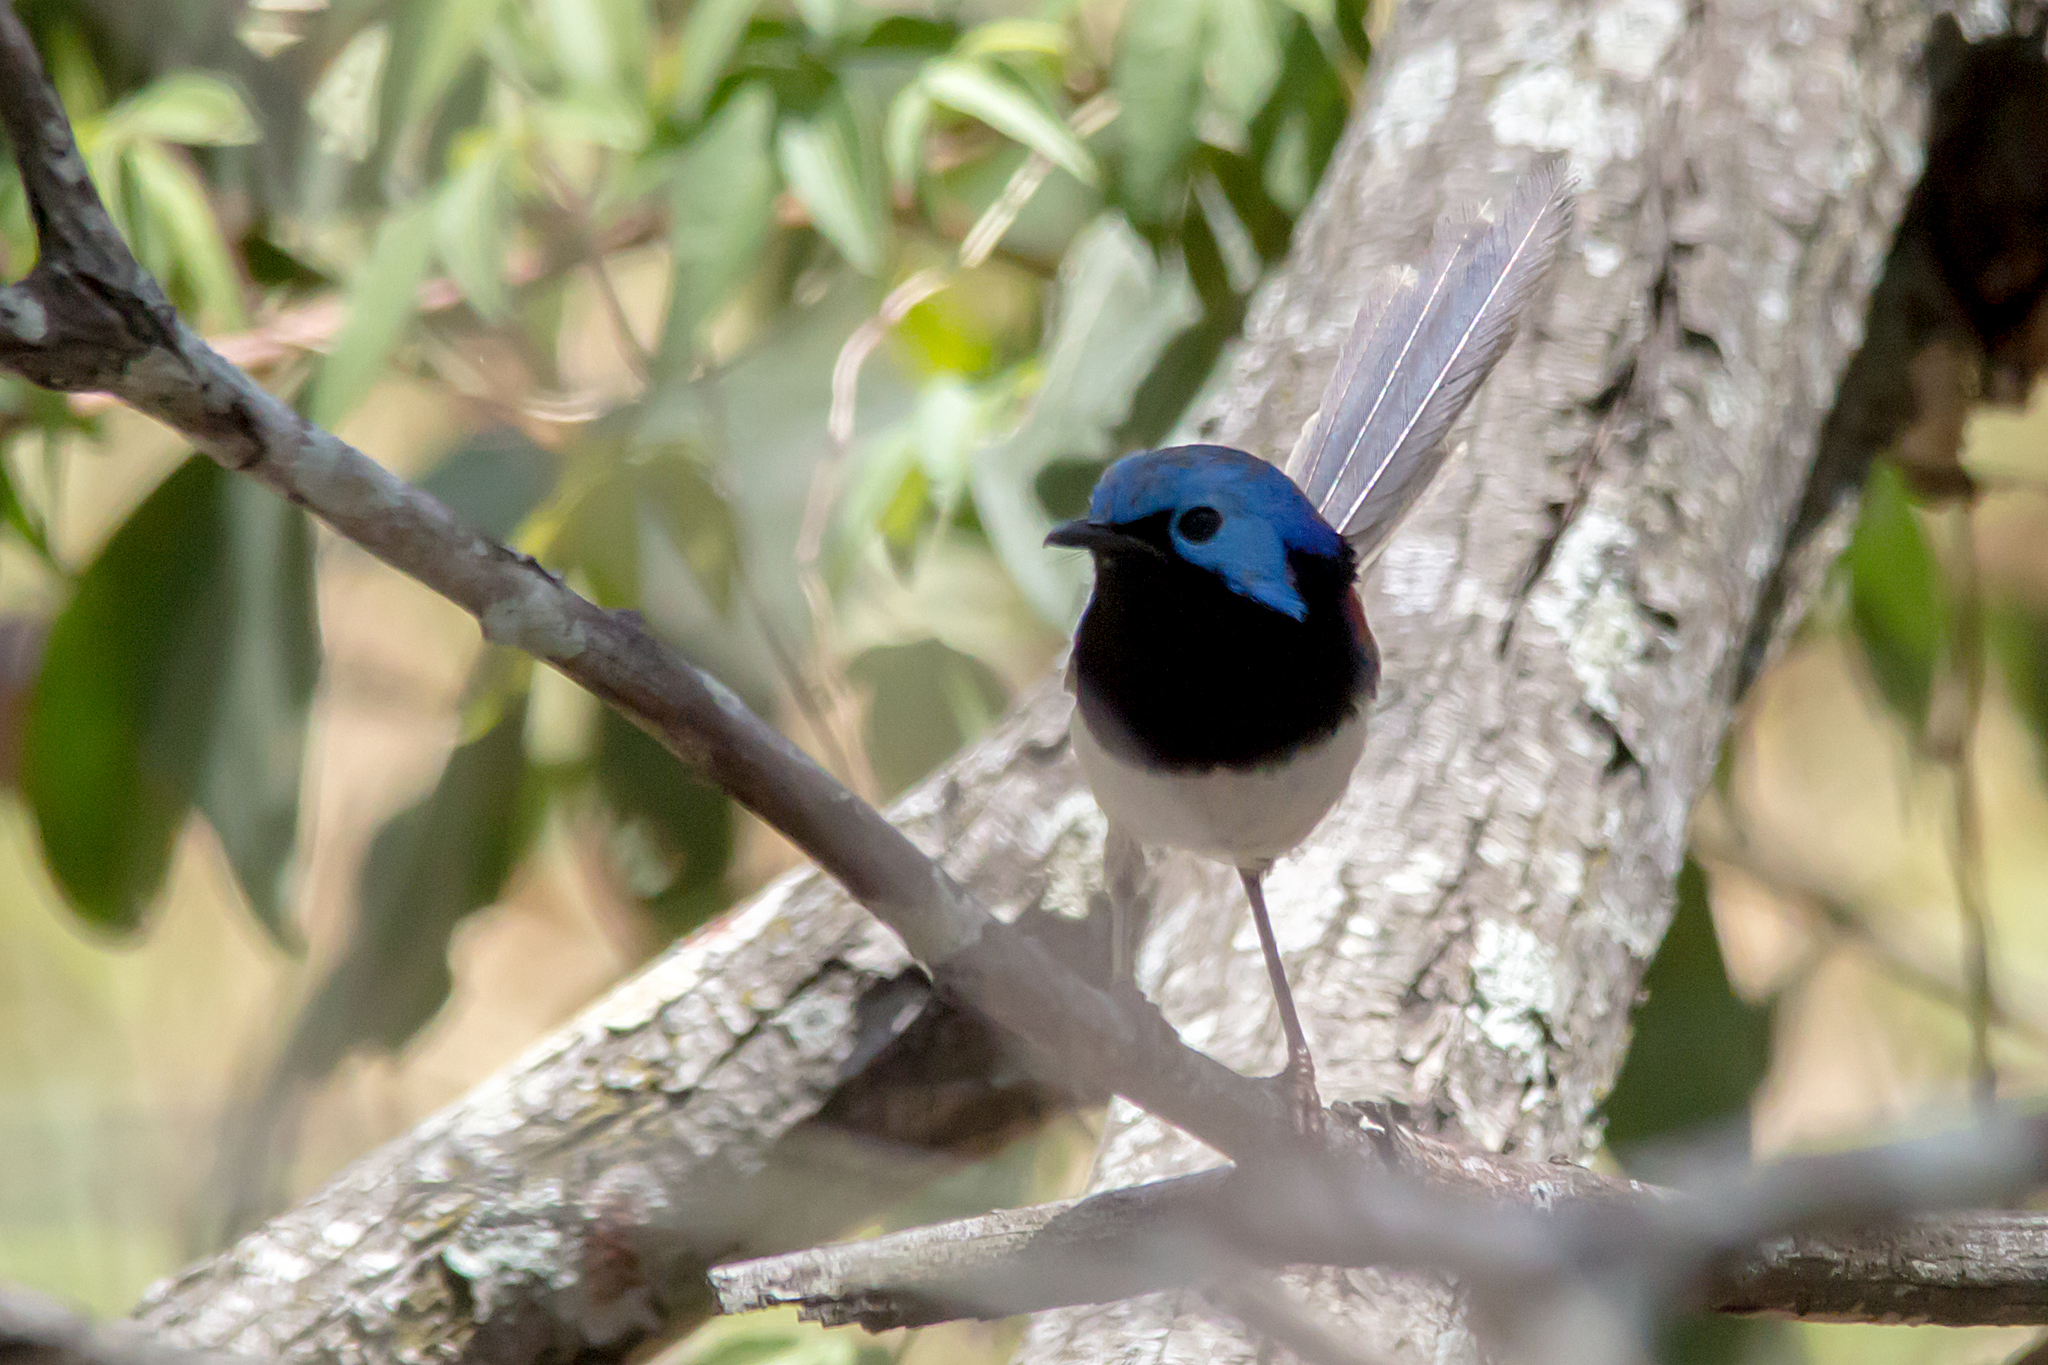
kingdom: Animalia
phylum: Chordata
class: Aves
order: Passeriformes
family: Maluridae
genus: Malurus
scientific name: Malurus lamberti
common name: Variegated fairywren
